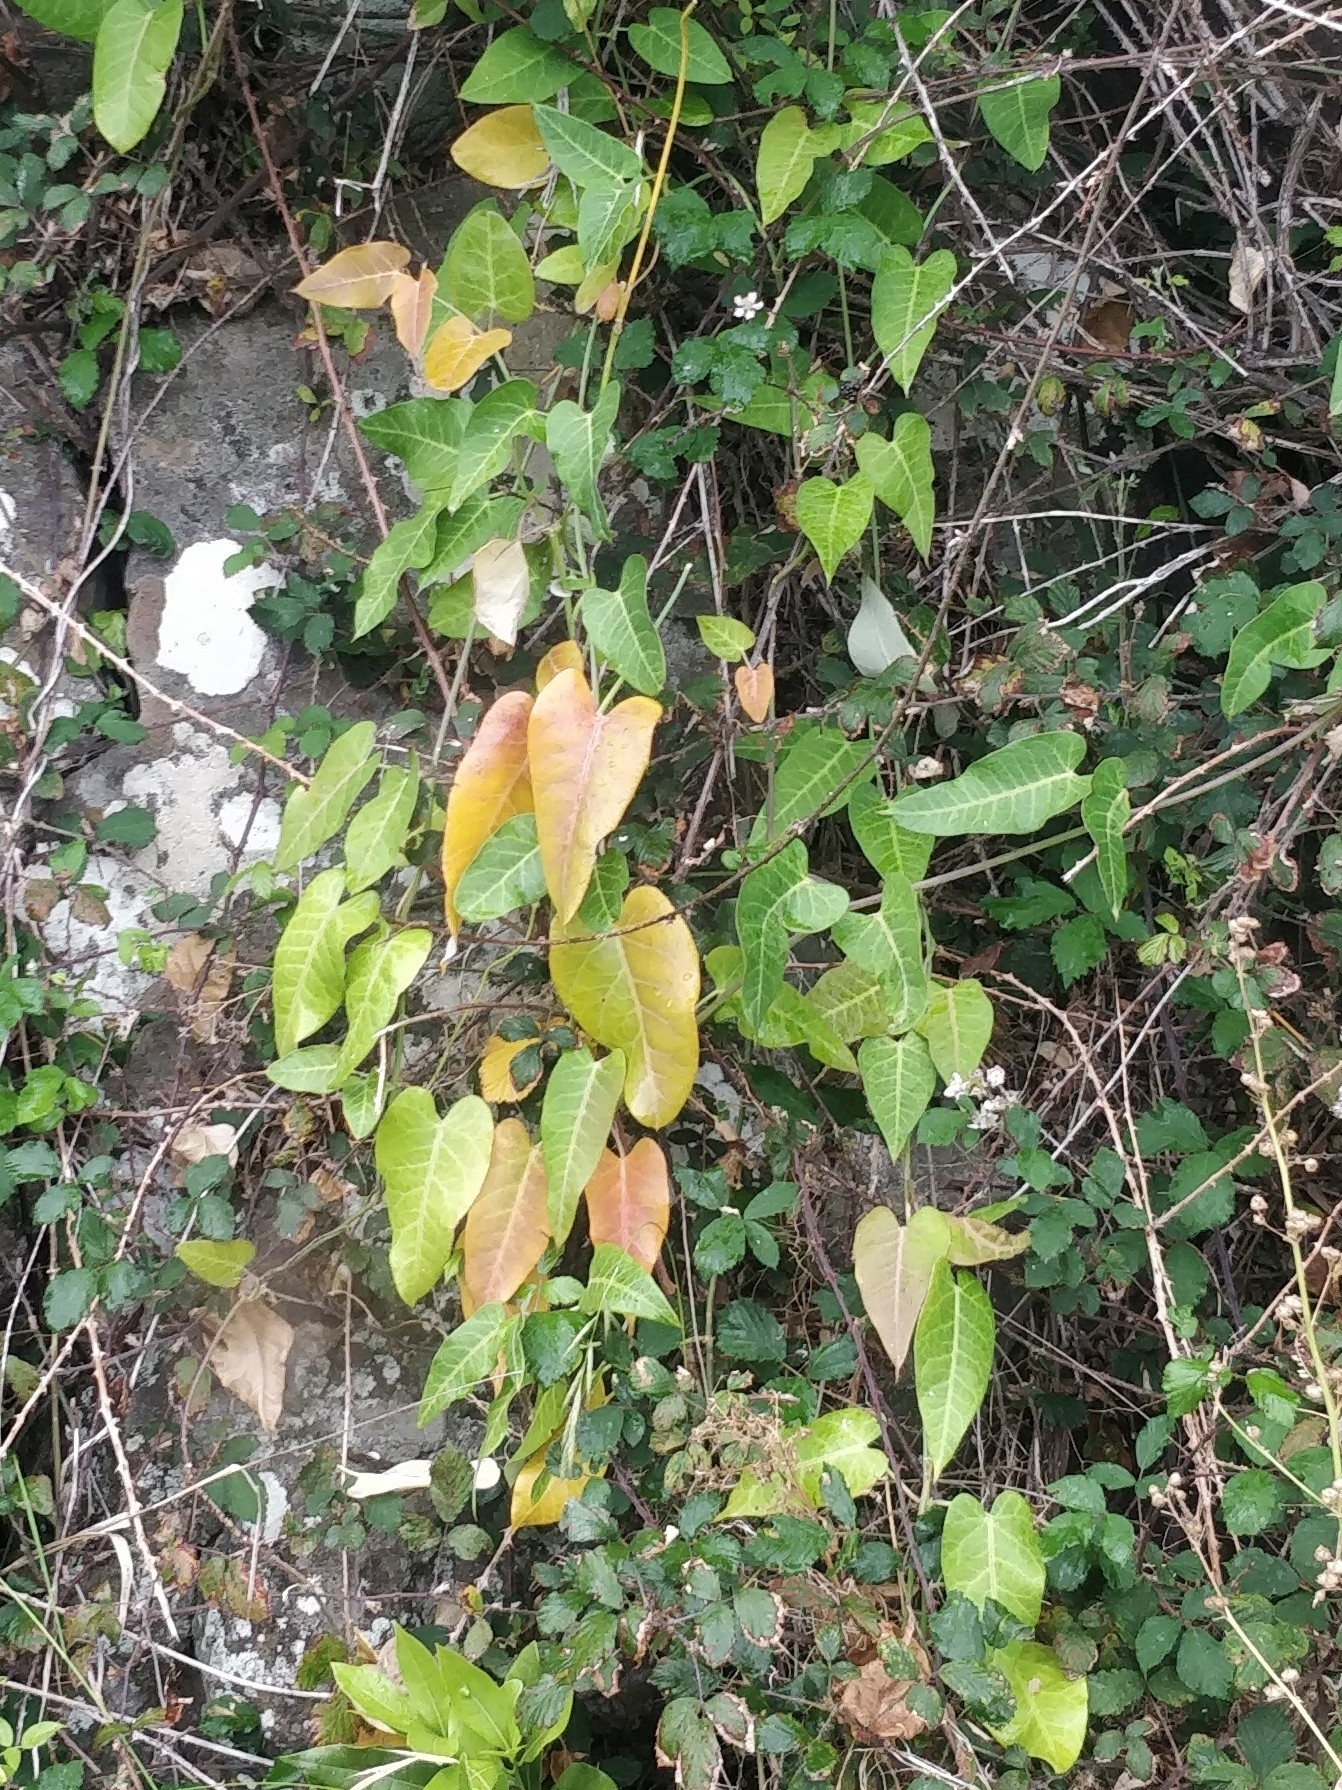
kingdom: Plantae
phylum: Tracheophyta
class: Magnoliopsida
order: Gentianales
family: Apocynaceae
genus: Araujia
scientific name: Araujia sericifera
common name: White bladderflower
